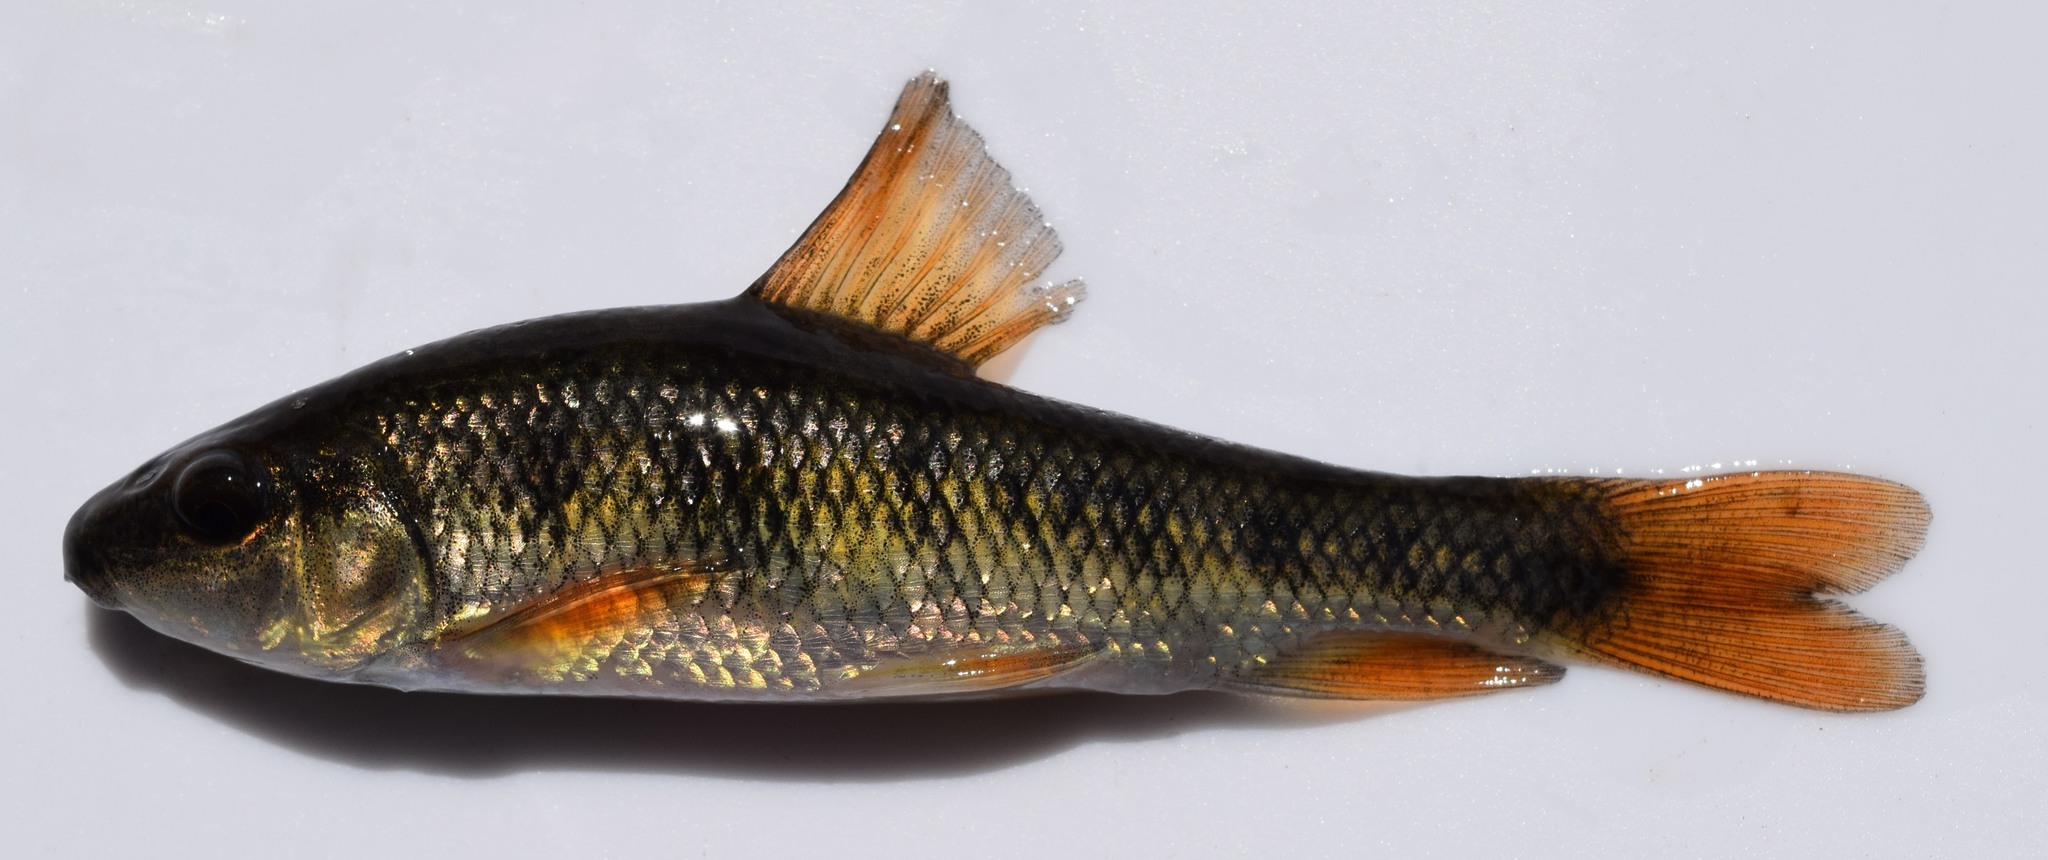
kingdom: Animalia
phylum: Chordata
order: Cypriniformes
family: Catostomidae
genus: Erimyzon
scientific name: Erimyzon claviformis
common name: Western creek chubsucker
